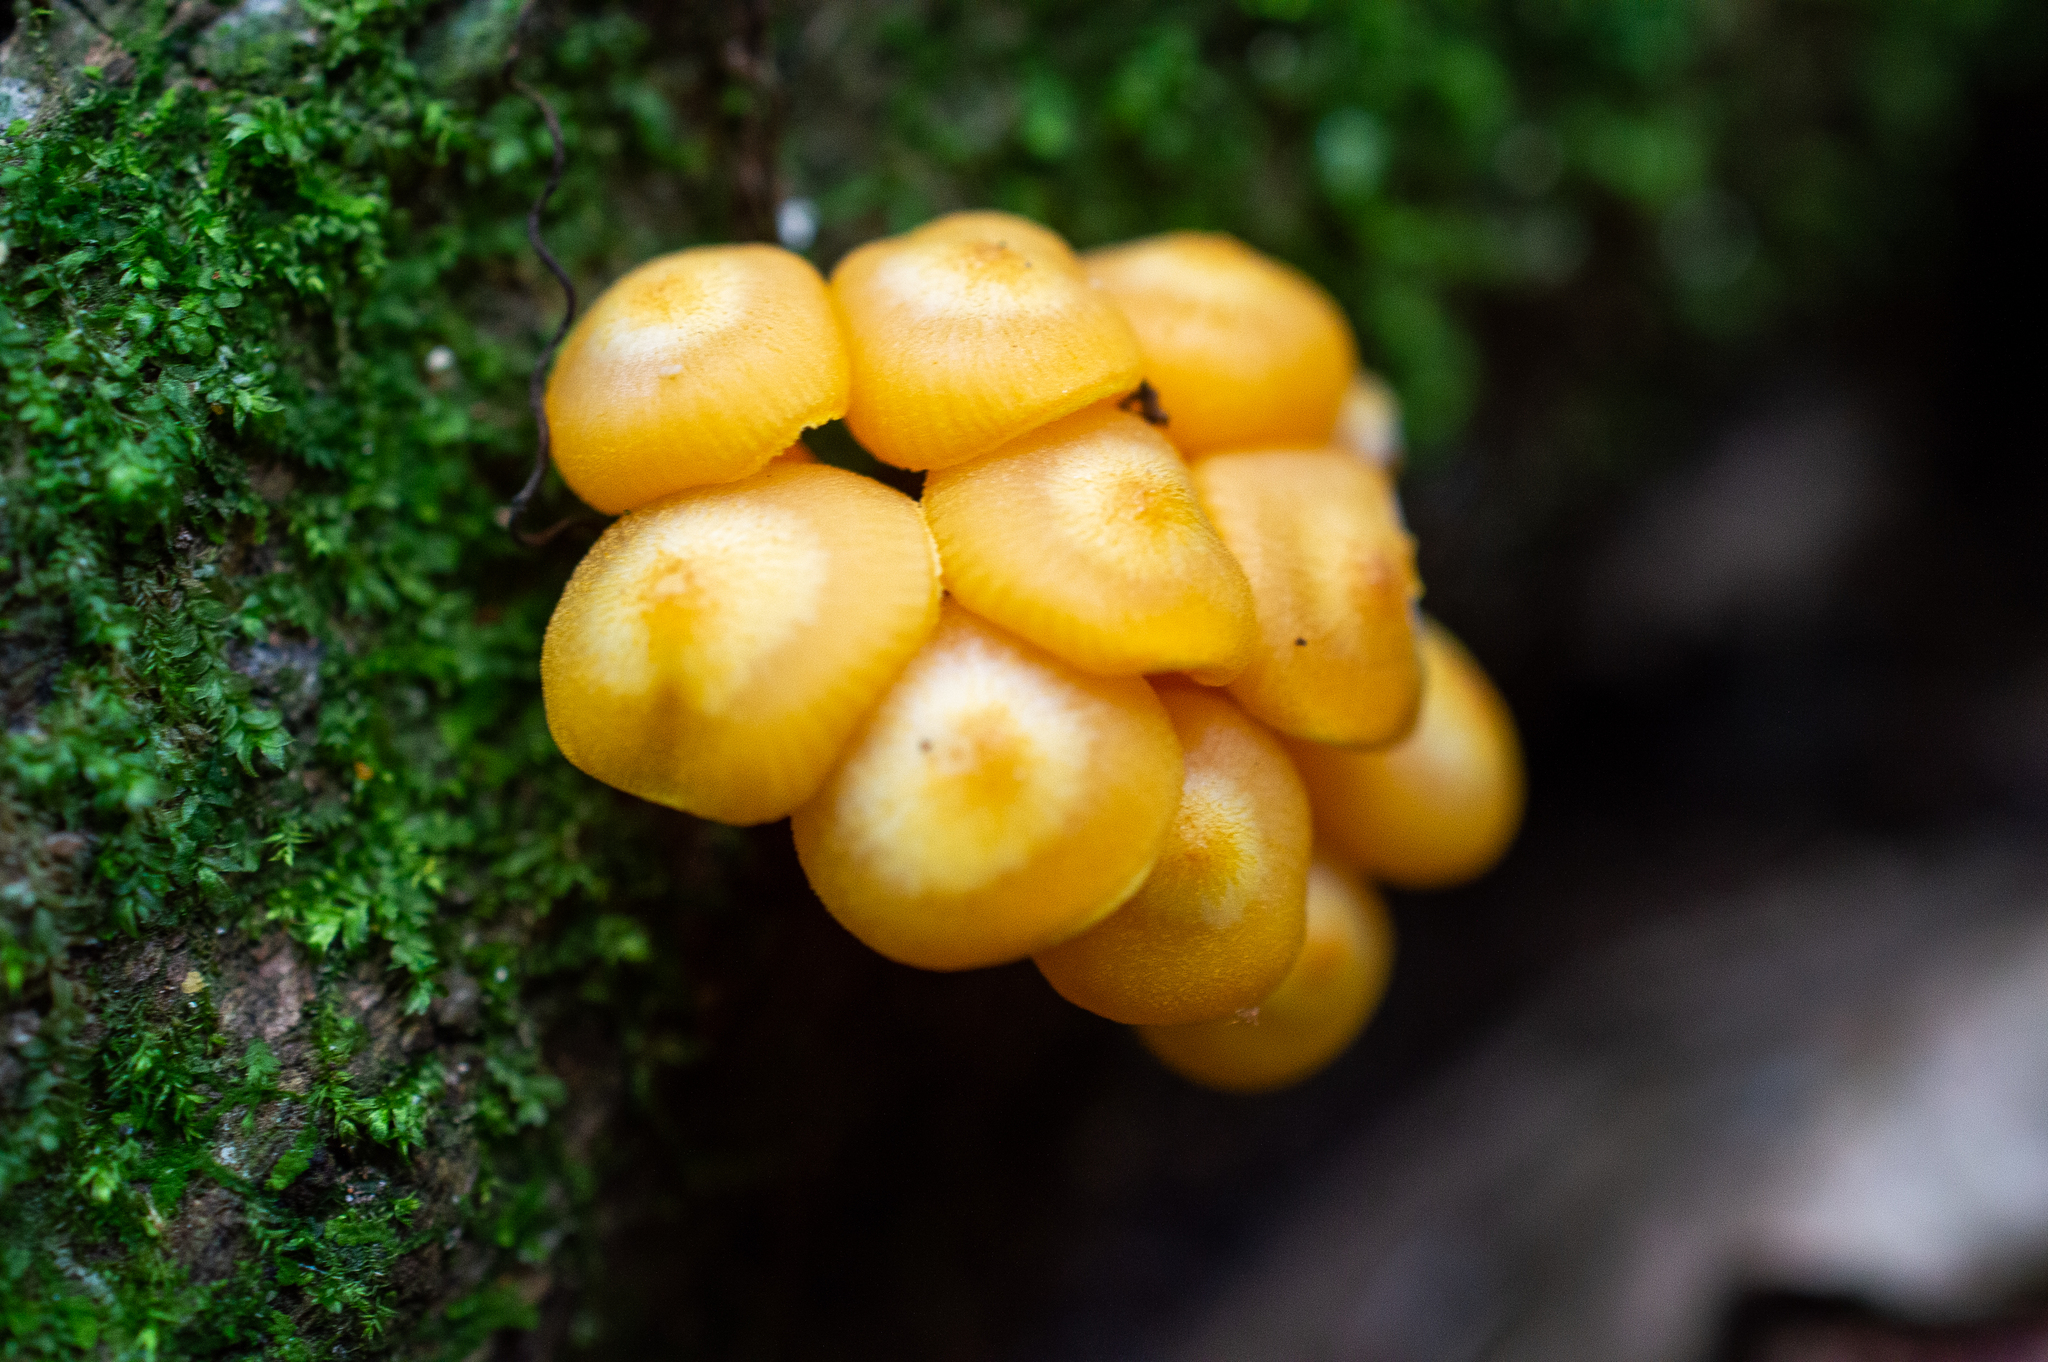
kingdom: Fungi
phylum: Basidiomycota
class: Agaricomycetes
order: Agaricales
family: Mycenaceae
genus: Mycena
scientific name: Mycena leaiana
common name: Orange mycena
